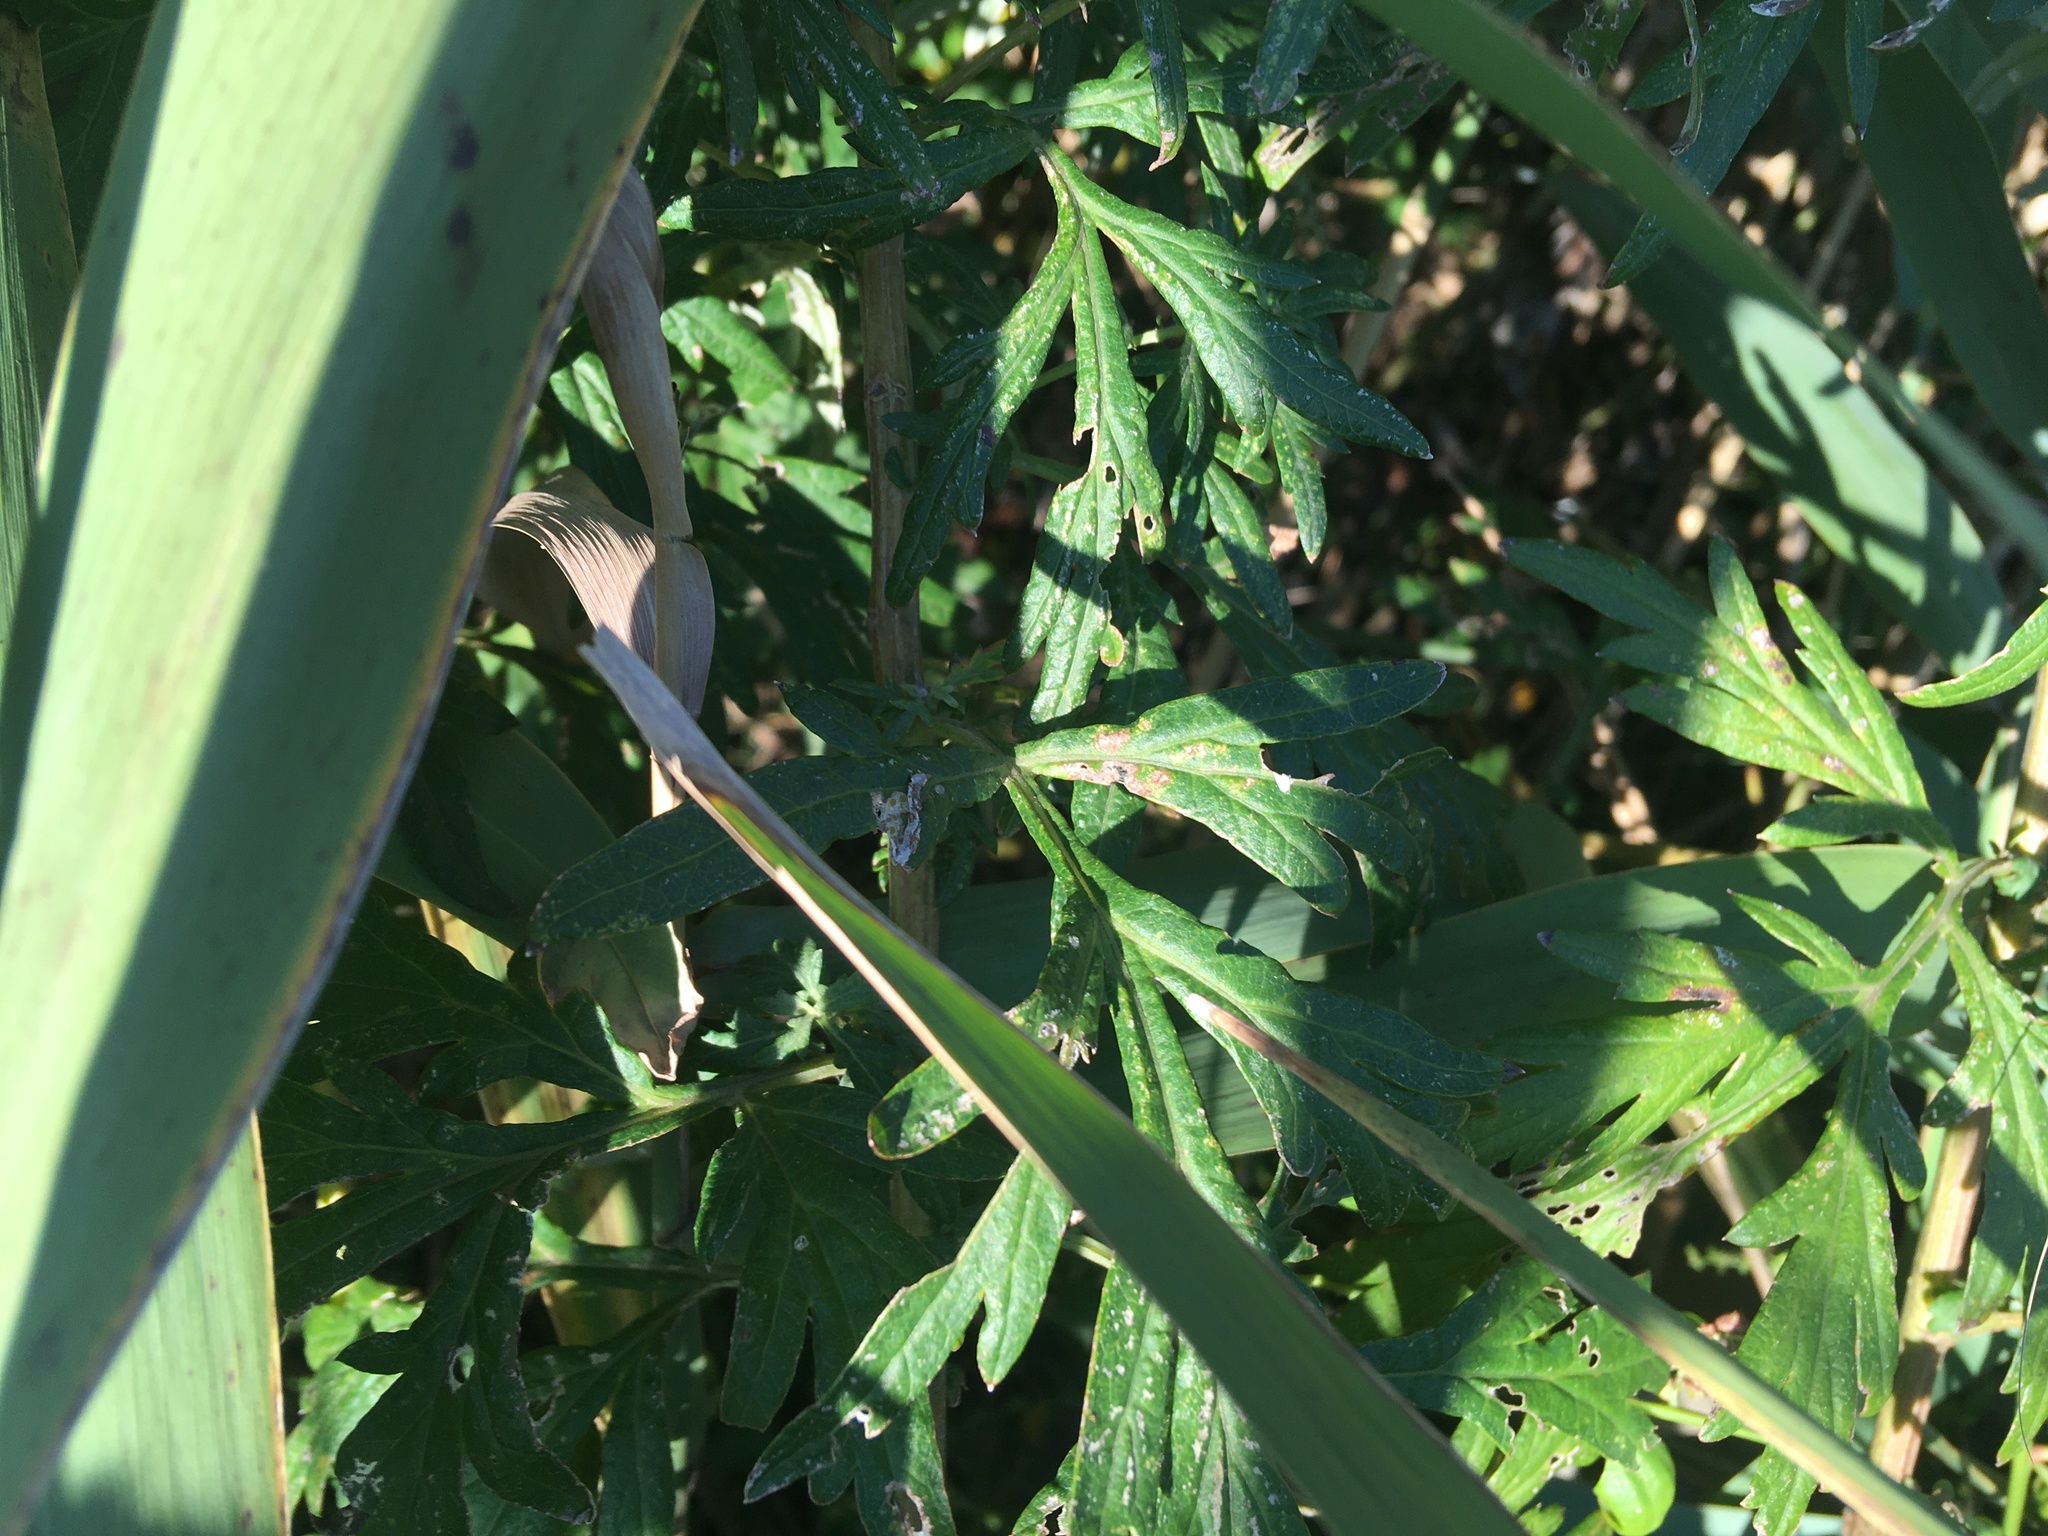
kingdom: Plantae
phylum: Tracheophyta
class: Magnoliopsida
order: Asterales
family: Asteraceae
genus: Artemisia
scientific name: Artemisia vulgaris
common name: Mugwort
